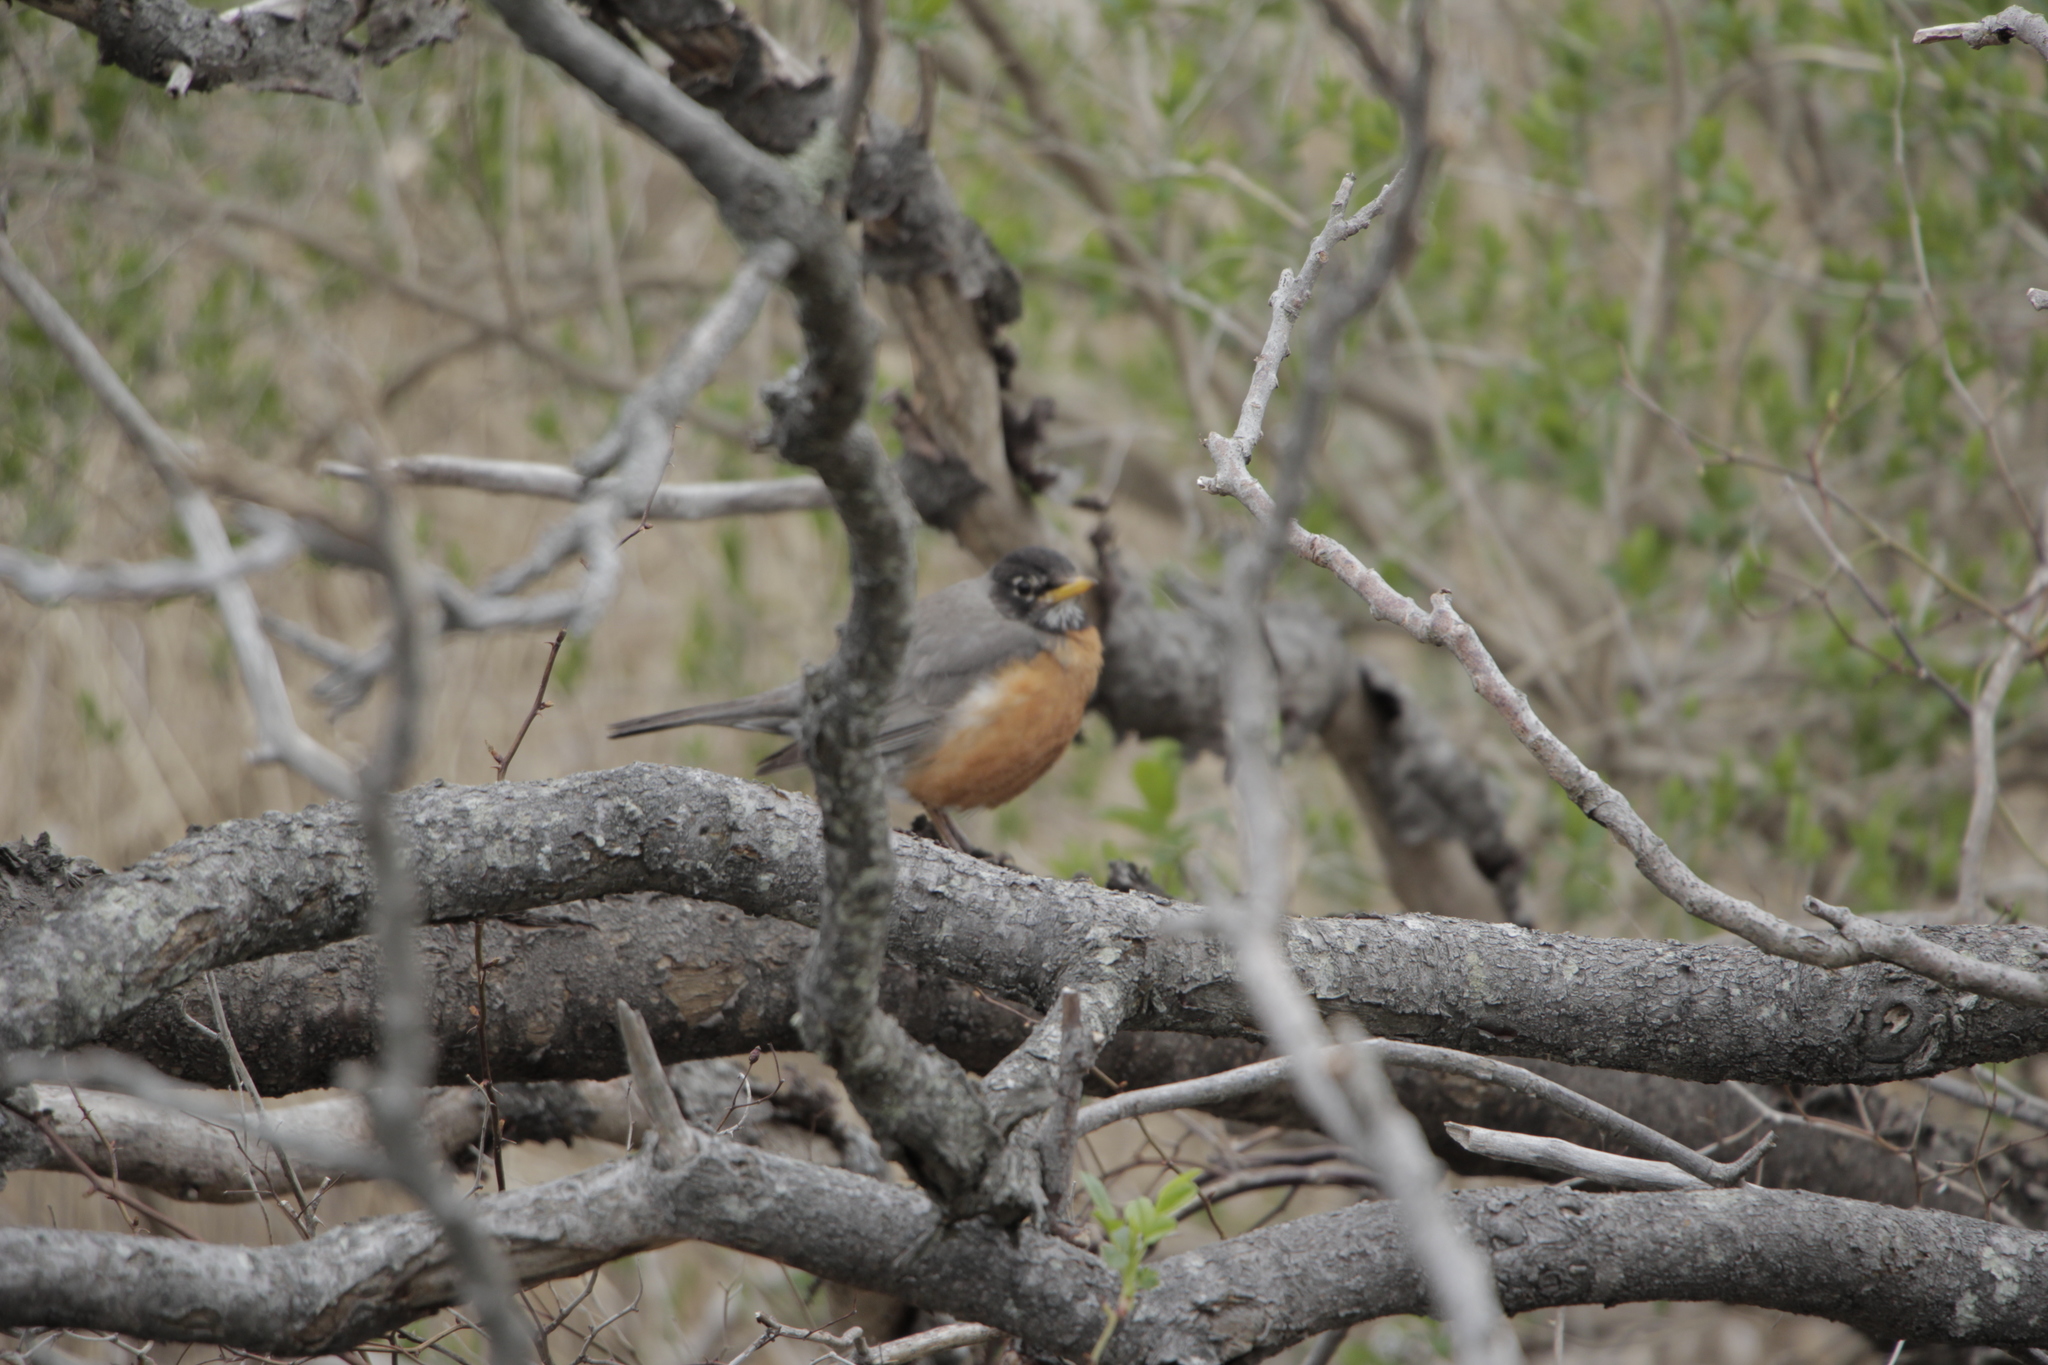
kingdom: Animalia
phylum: Chordata
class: Aves
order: Passeriformes
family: Turdidae
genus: Turdus
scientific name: Turdus migratorius
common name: American robin
